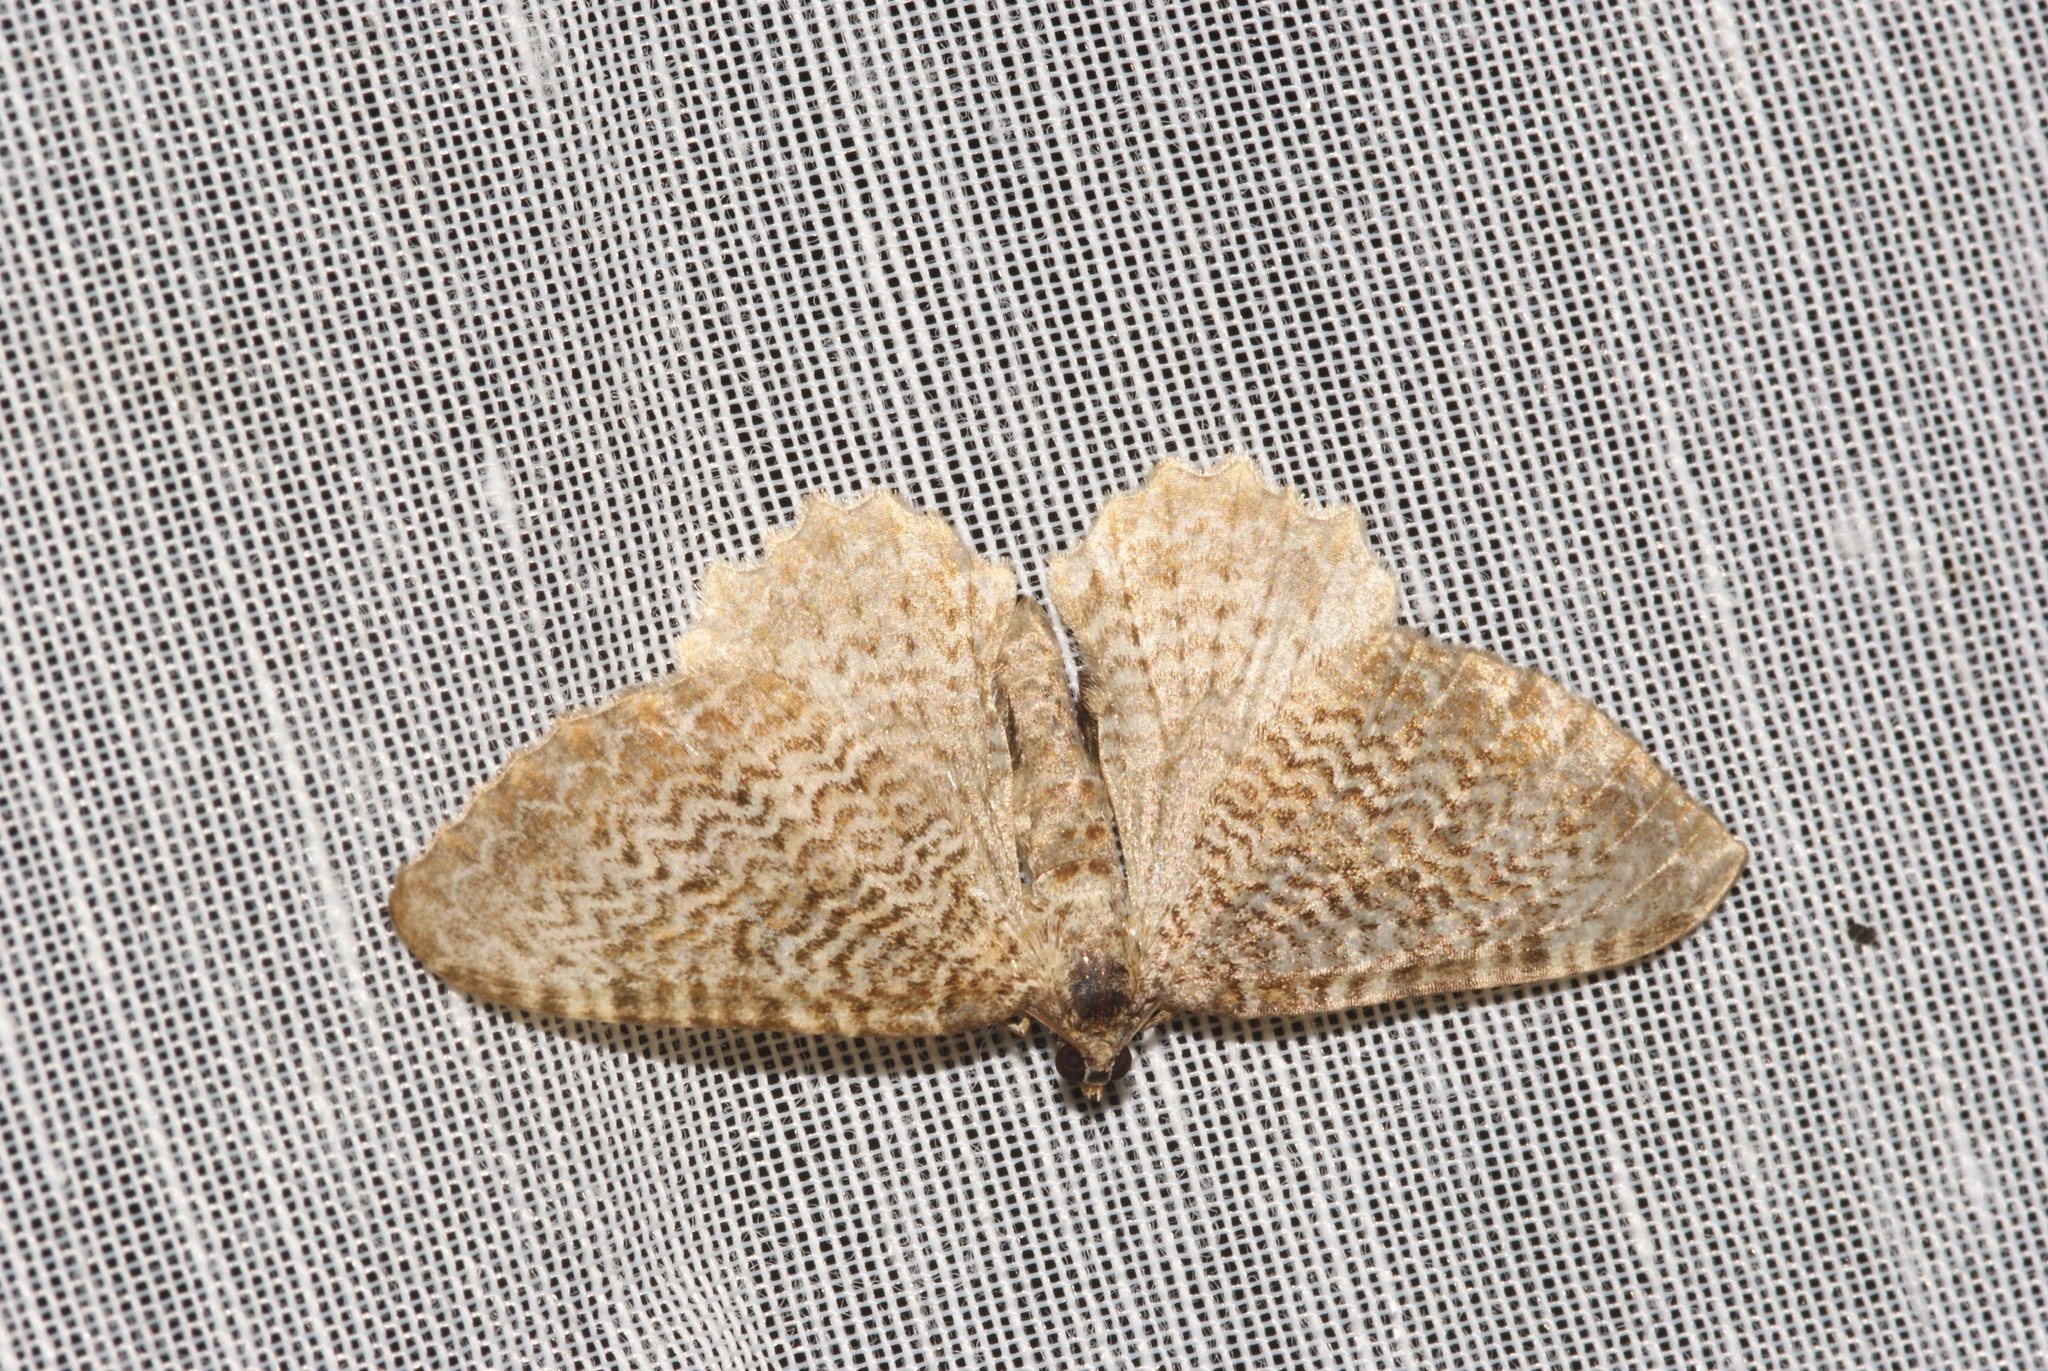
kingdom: Animalia
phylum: Arthropoda
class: Insecta
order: Lepidoptera
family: Geometridae
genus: Rheumaptera
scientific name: Rheumaptera undulata
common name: Scallop shell
